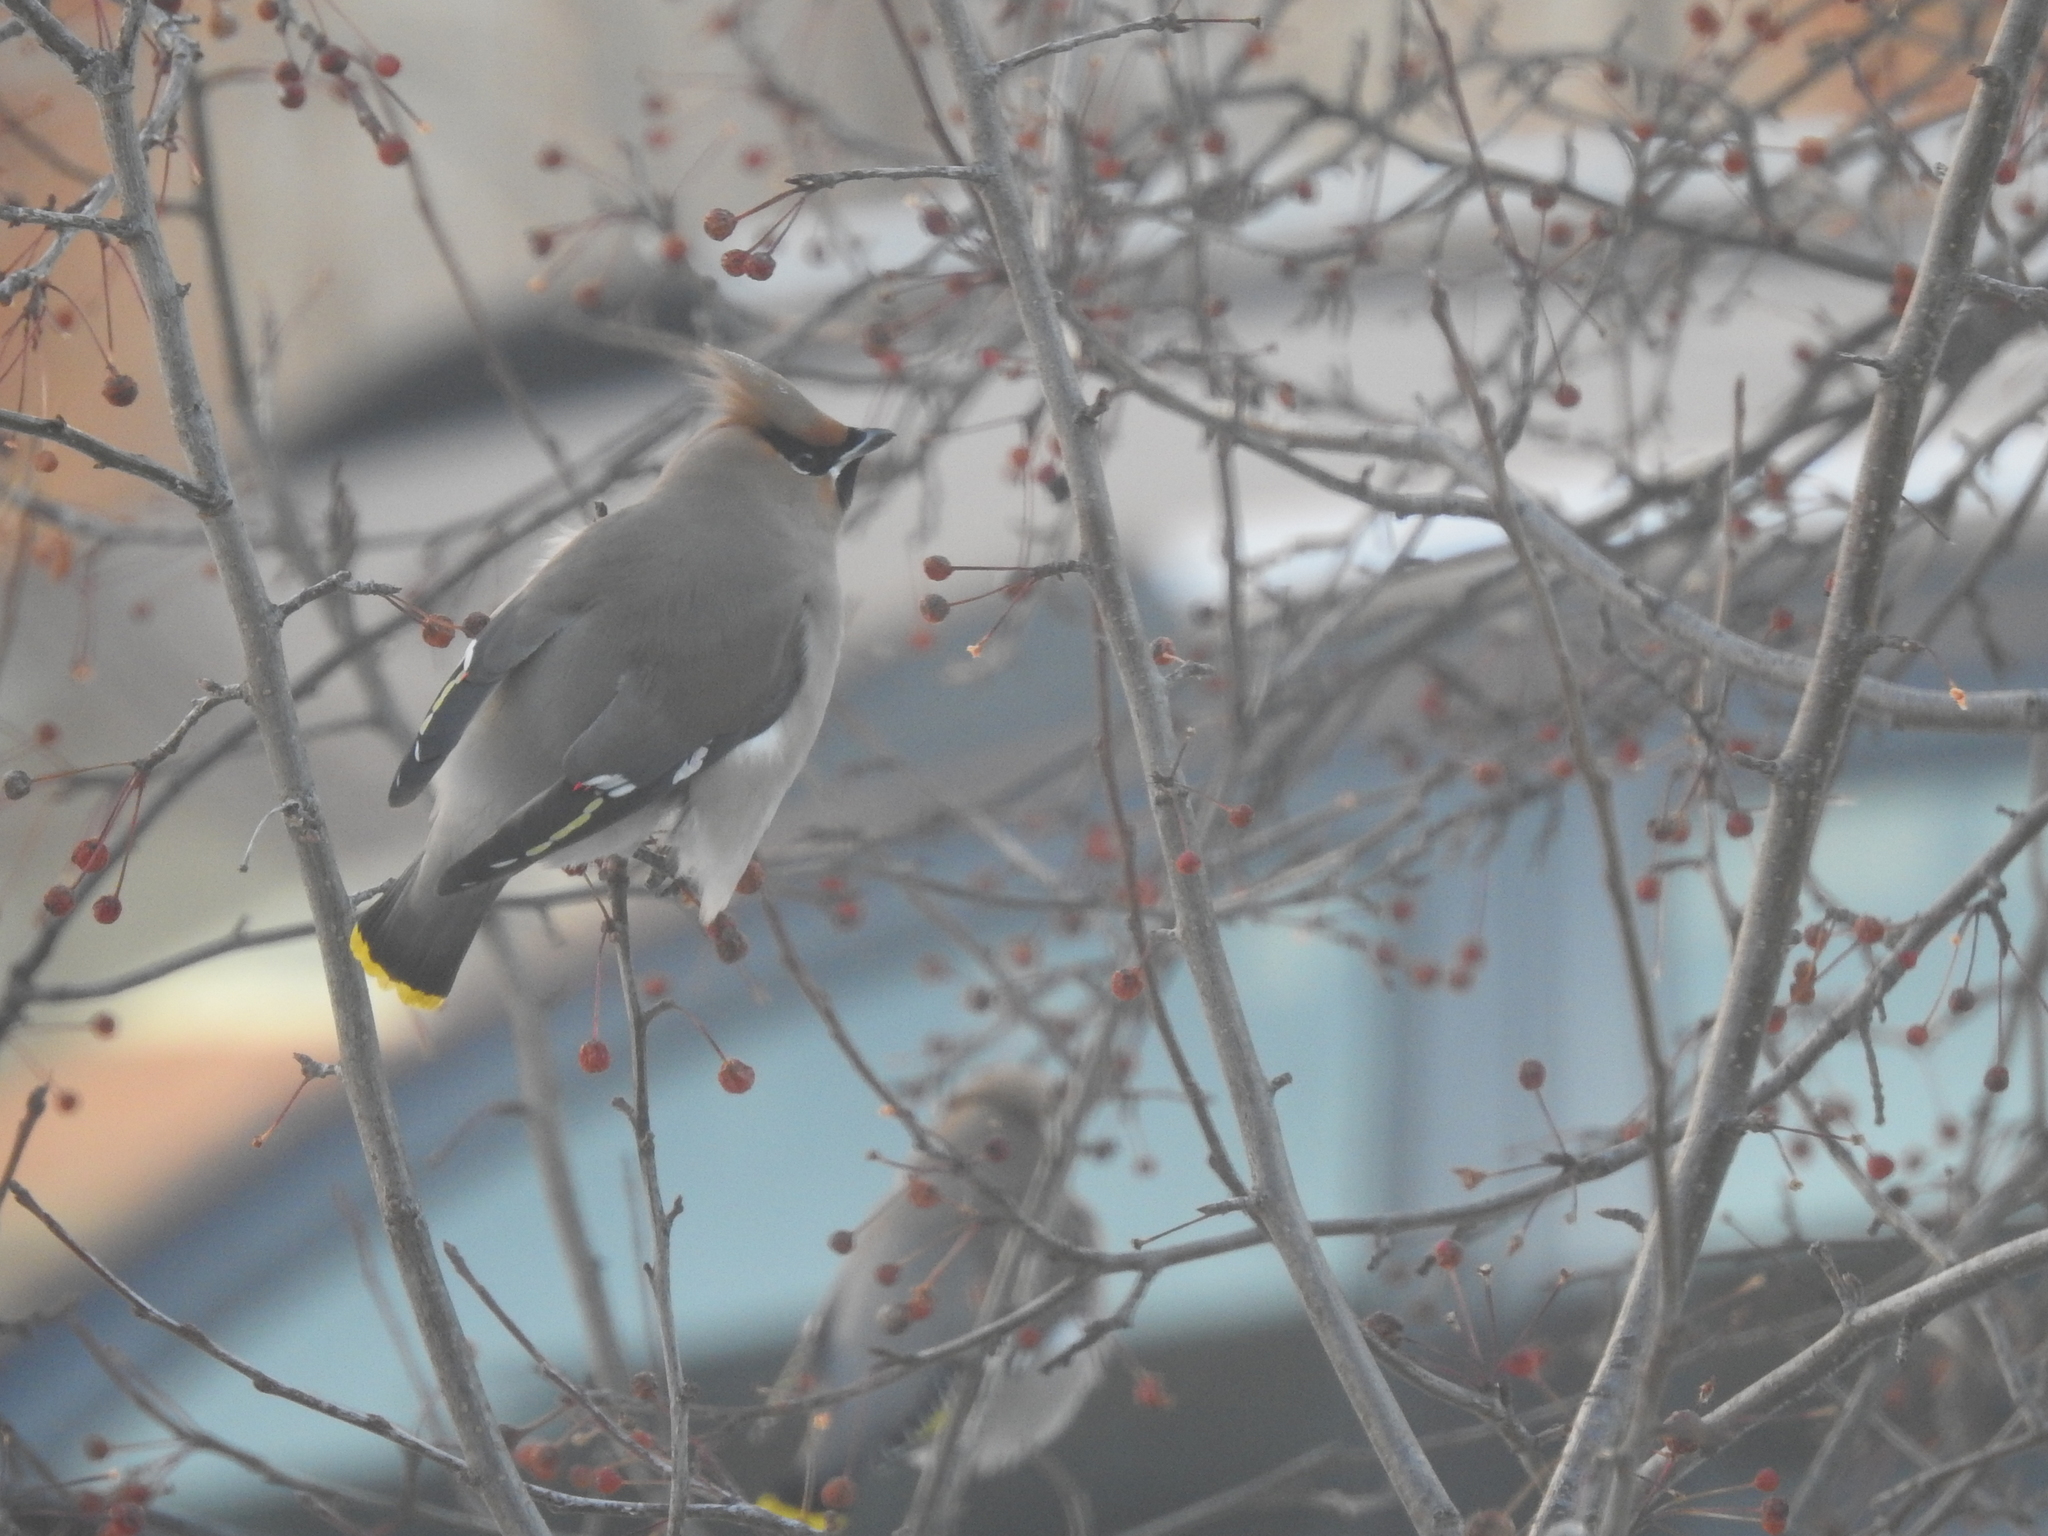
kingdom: Animalia
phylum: Chordata
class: Aves
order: Passeriformes
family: Bombycillidae
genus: Bombycilla
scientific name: Bombycilla garrulus
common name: Bohemian waxwing
